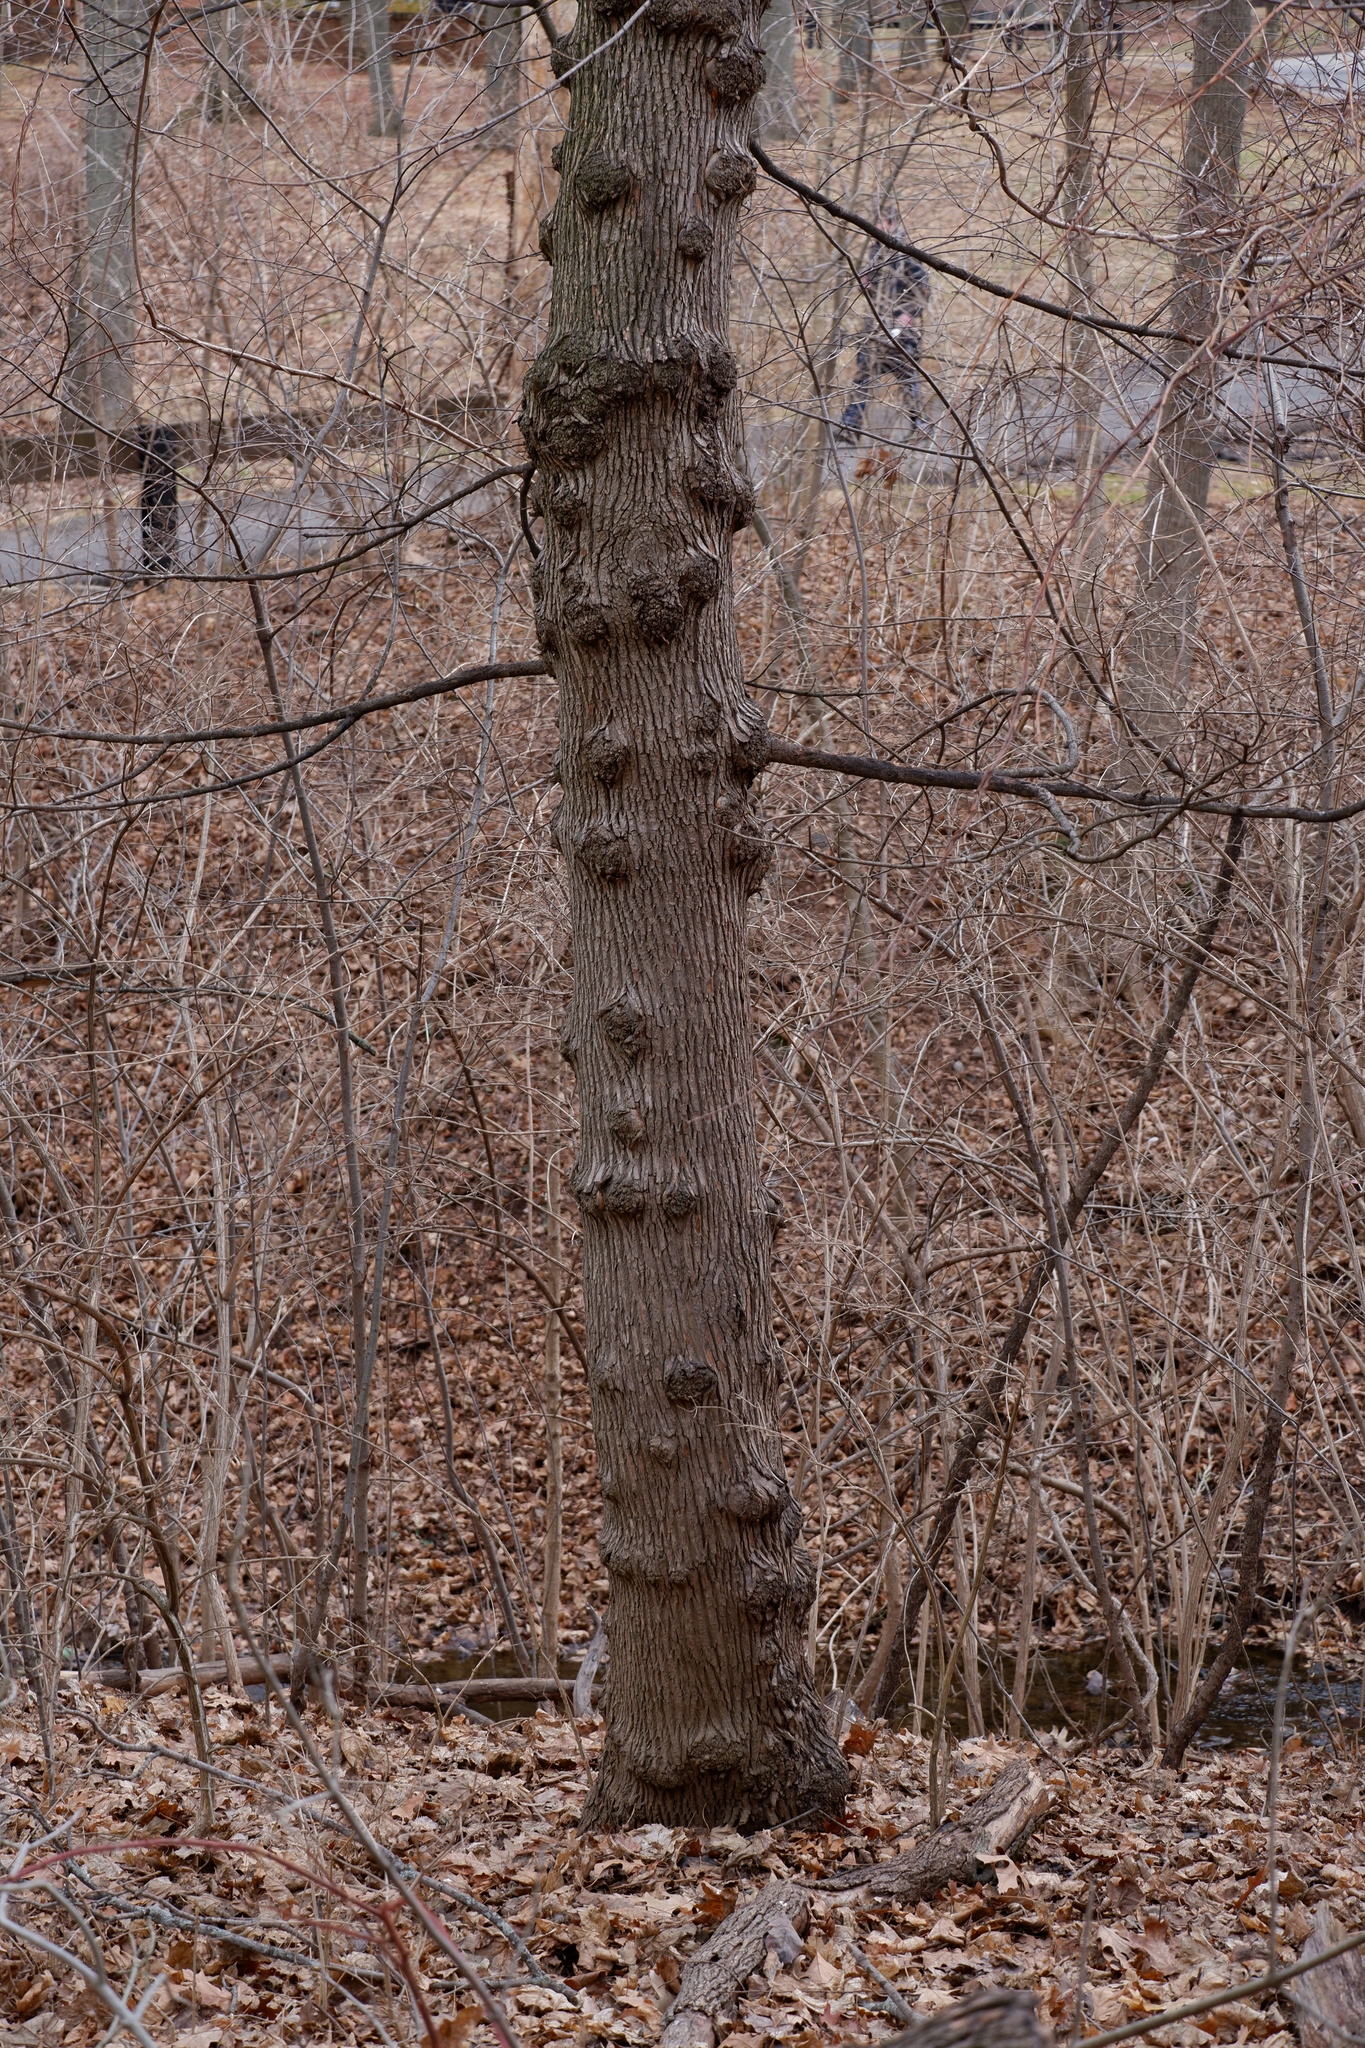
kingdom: Plantae
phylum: Tracheophyta
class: Magnoliopsida
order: Sapindales
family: Sapindaceae
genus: Acer
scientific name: Acer platanoides
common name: Norway maple
